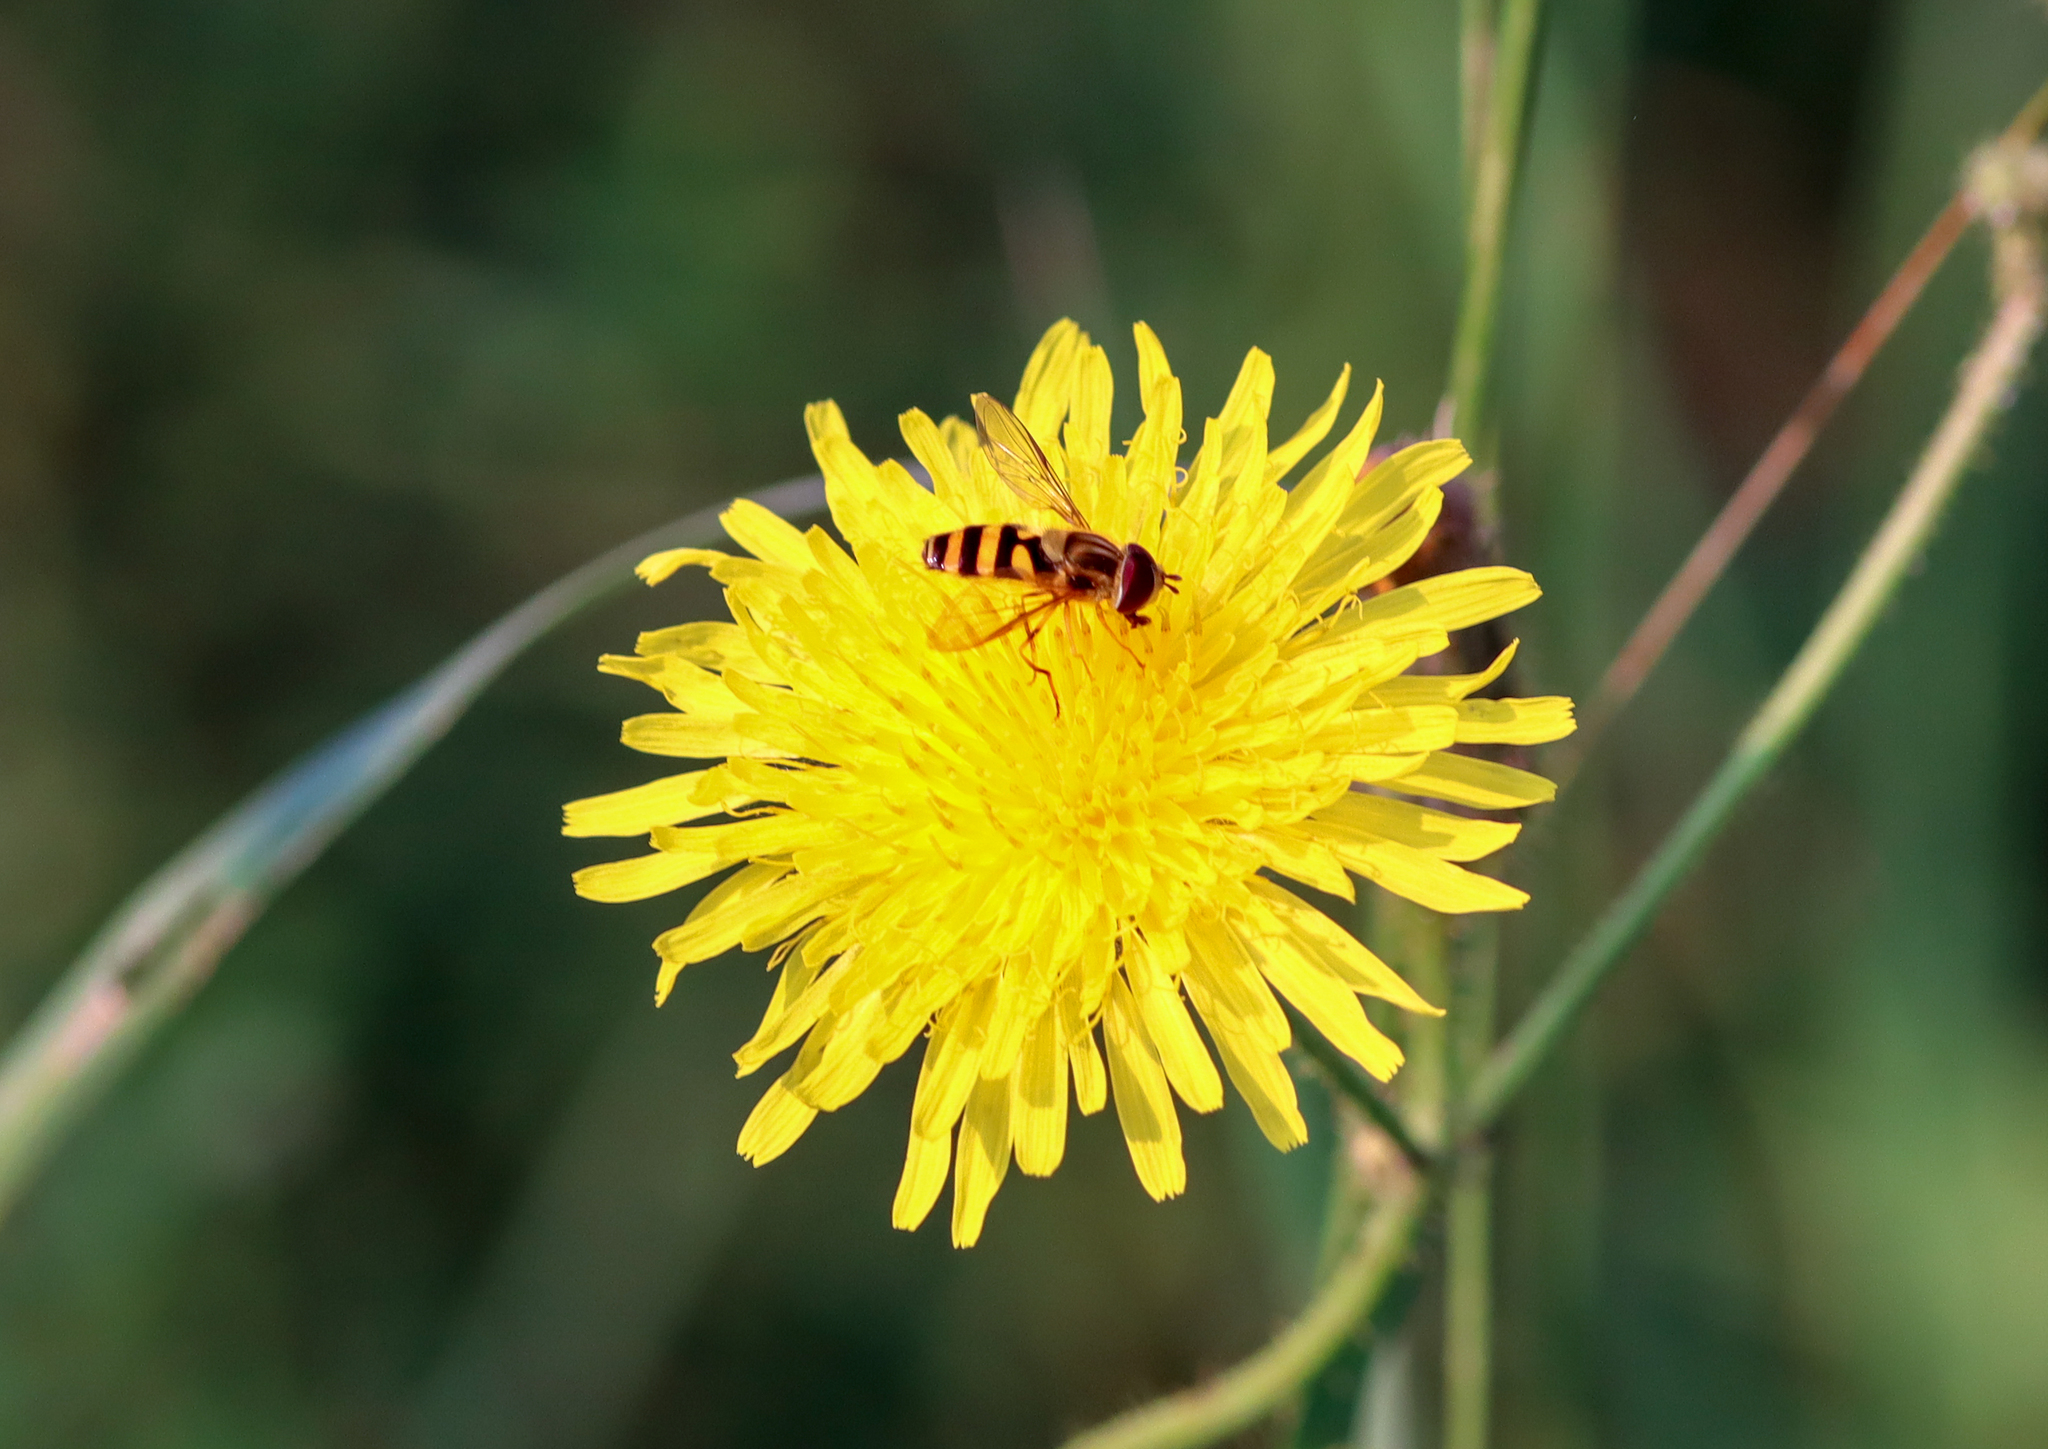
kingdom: Animalia
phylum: Arthropoda
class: Insecta
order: Diptera
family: Syrphidae
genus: Syrphus
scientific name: Syrphus knabi
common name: Eastern flower fly
